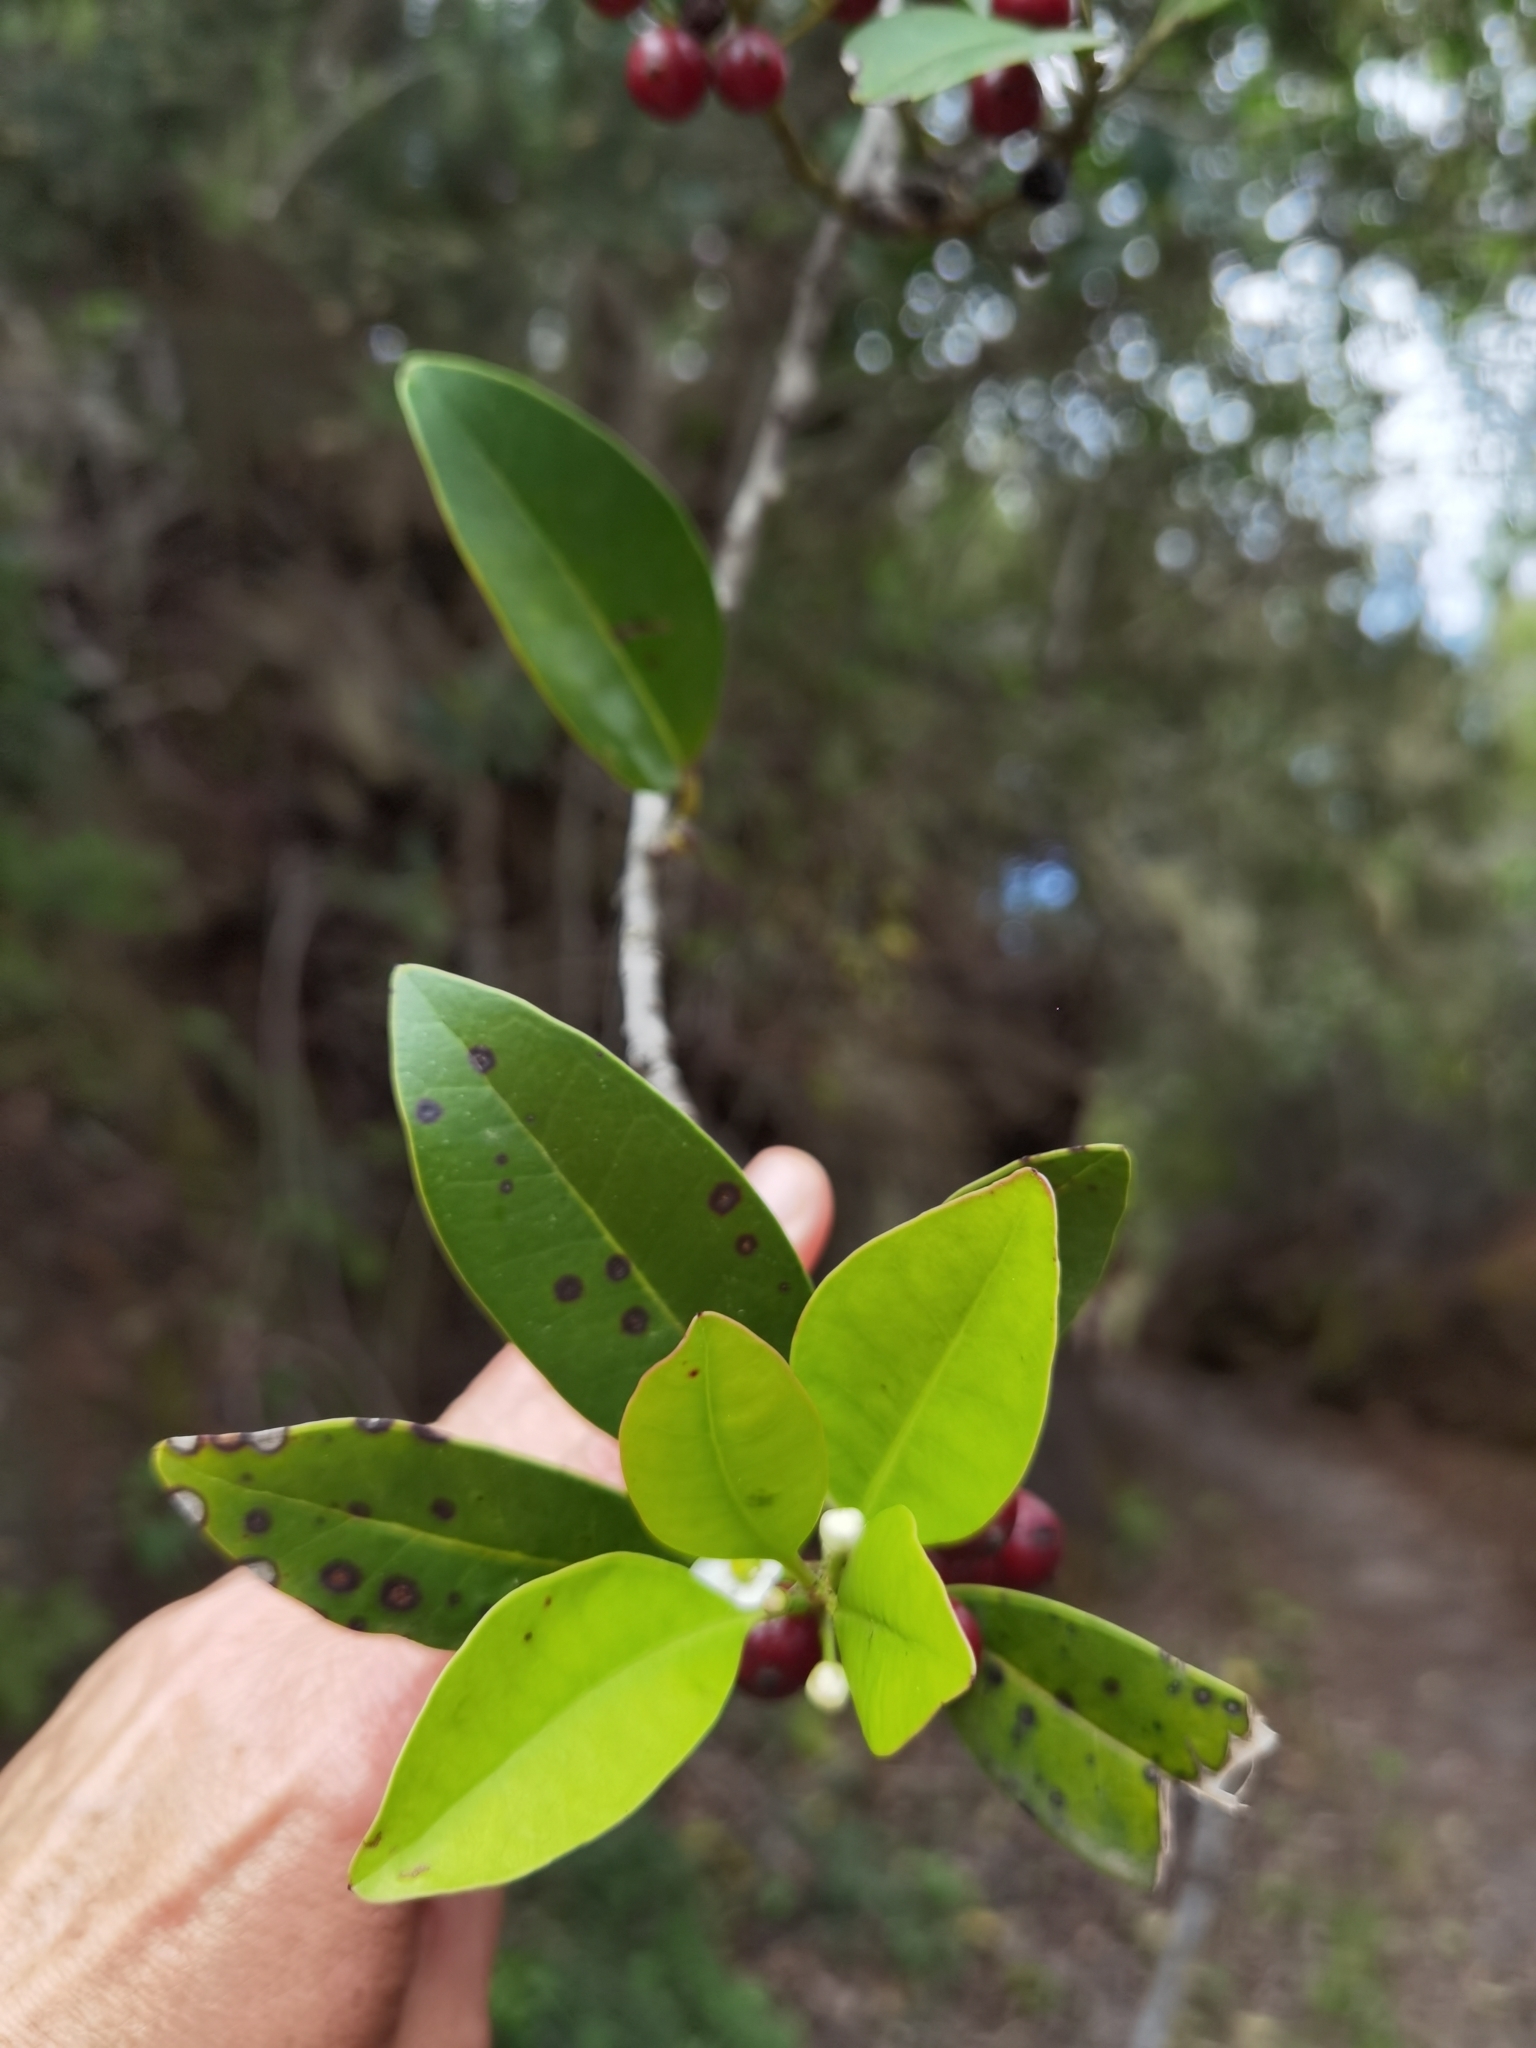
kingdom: Plantae
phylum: Tracheophyta
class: Magnoliopsida
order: Aquifoliales
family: Aquifoliaceae
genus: Ilex
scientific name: Ilex canariensis
